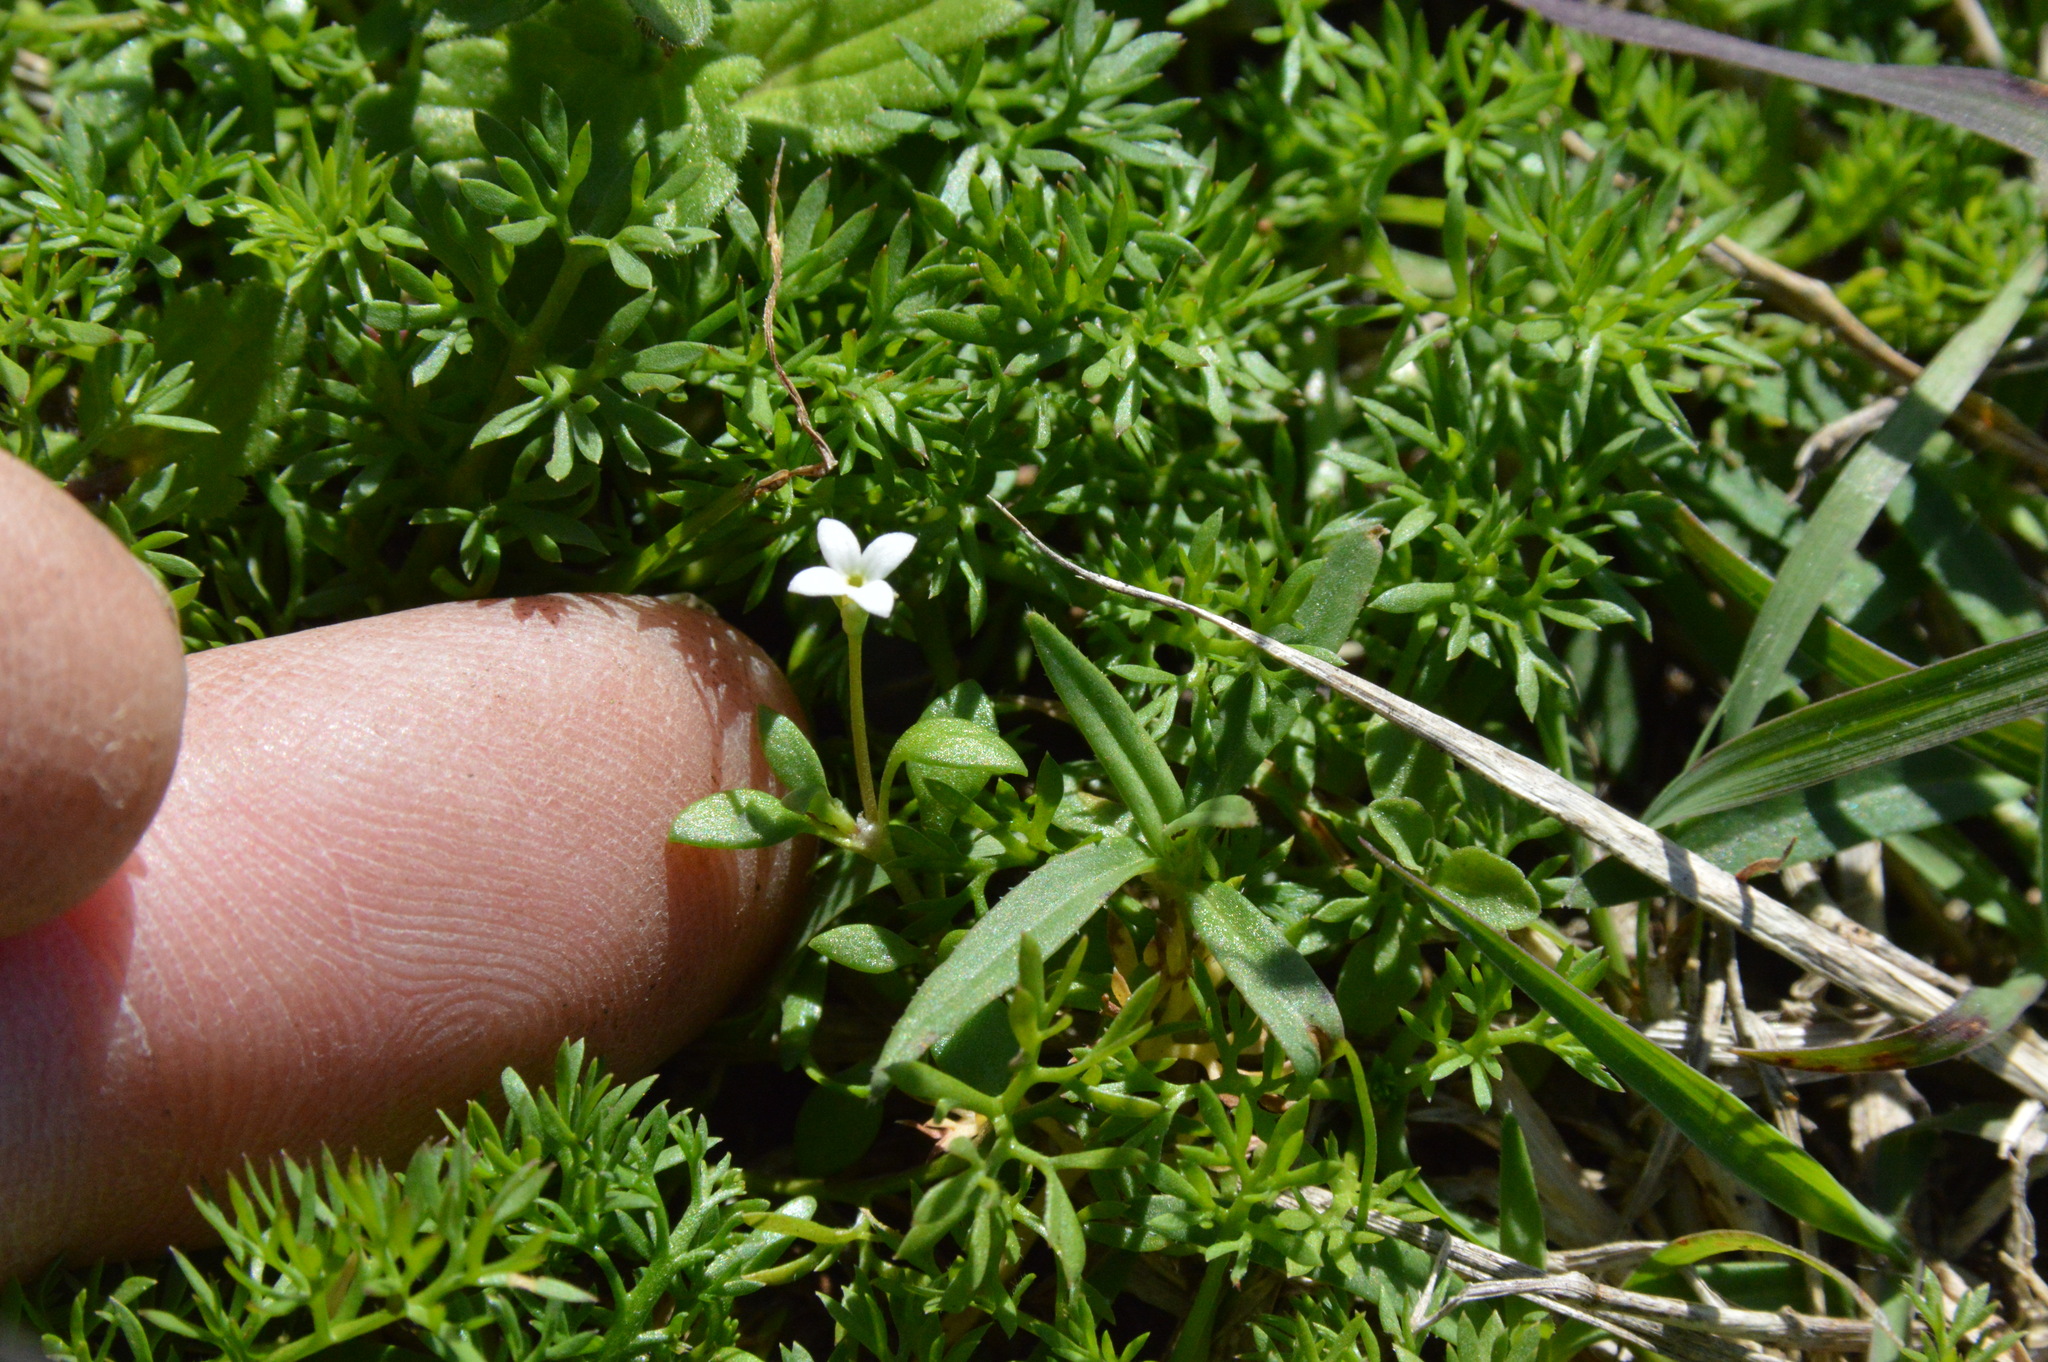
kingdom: Plantae
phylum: Tracheophyta
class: Magnoliopsida
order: Gentianales
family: Rubiaceae
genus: Houstonia
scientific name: Houstonia micrantha
